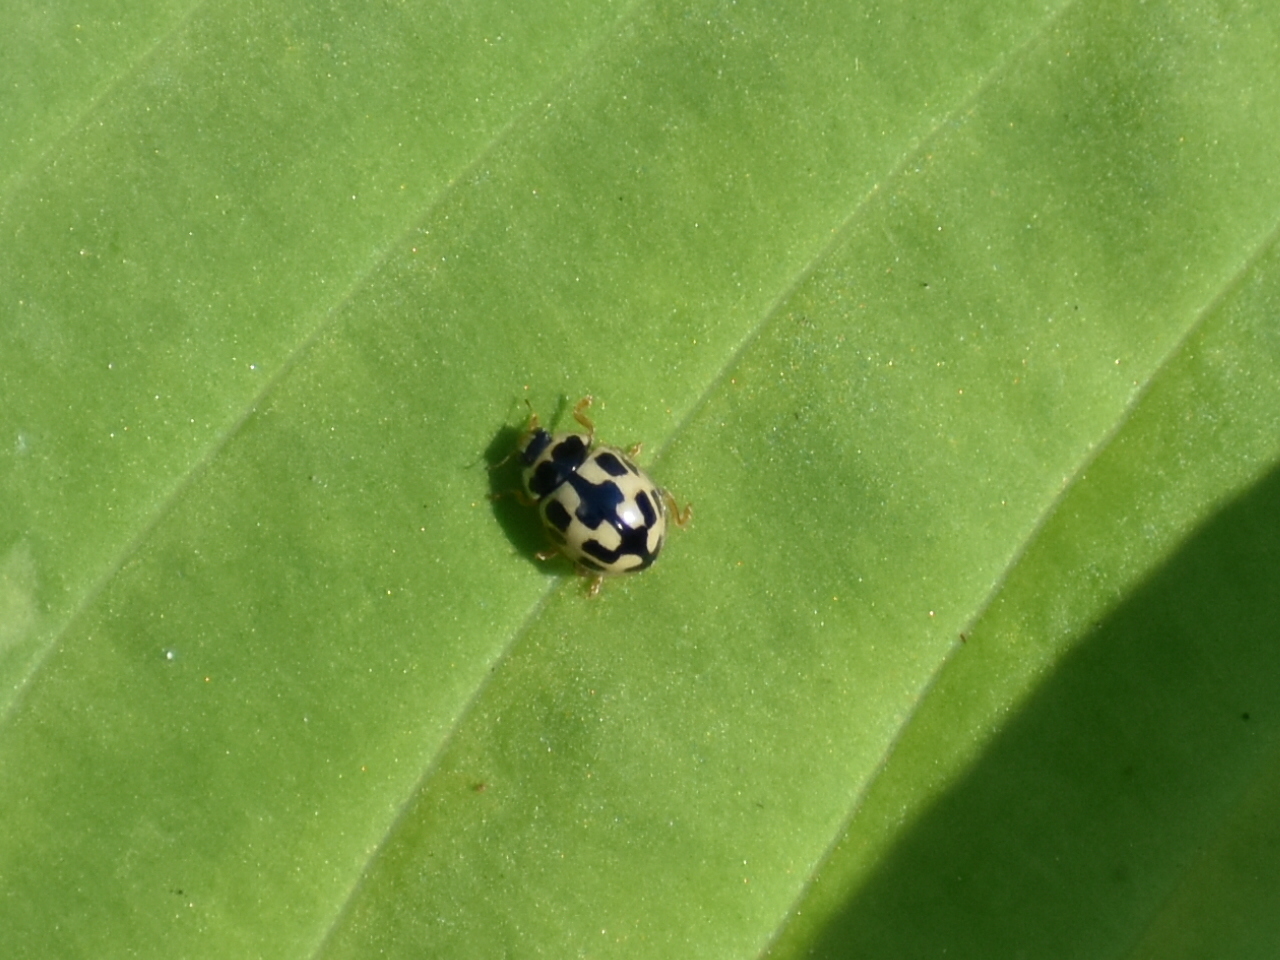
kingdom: Animalia
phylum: Arthropoda
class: Insecta
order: Coleoptera
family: Coccinellidae
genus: Propylaea
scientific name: Propylaea quatuordecimpunctata
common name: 14-spotted ladybird beetle
